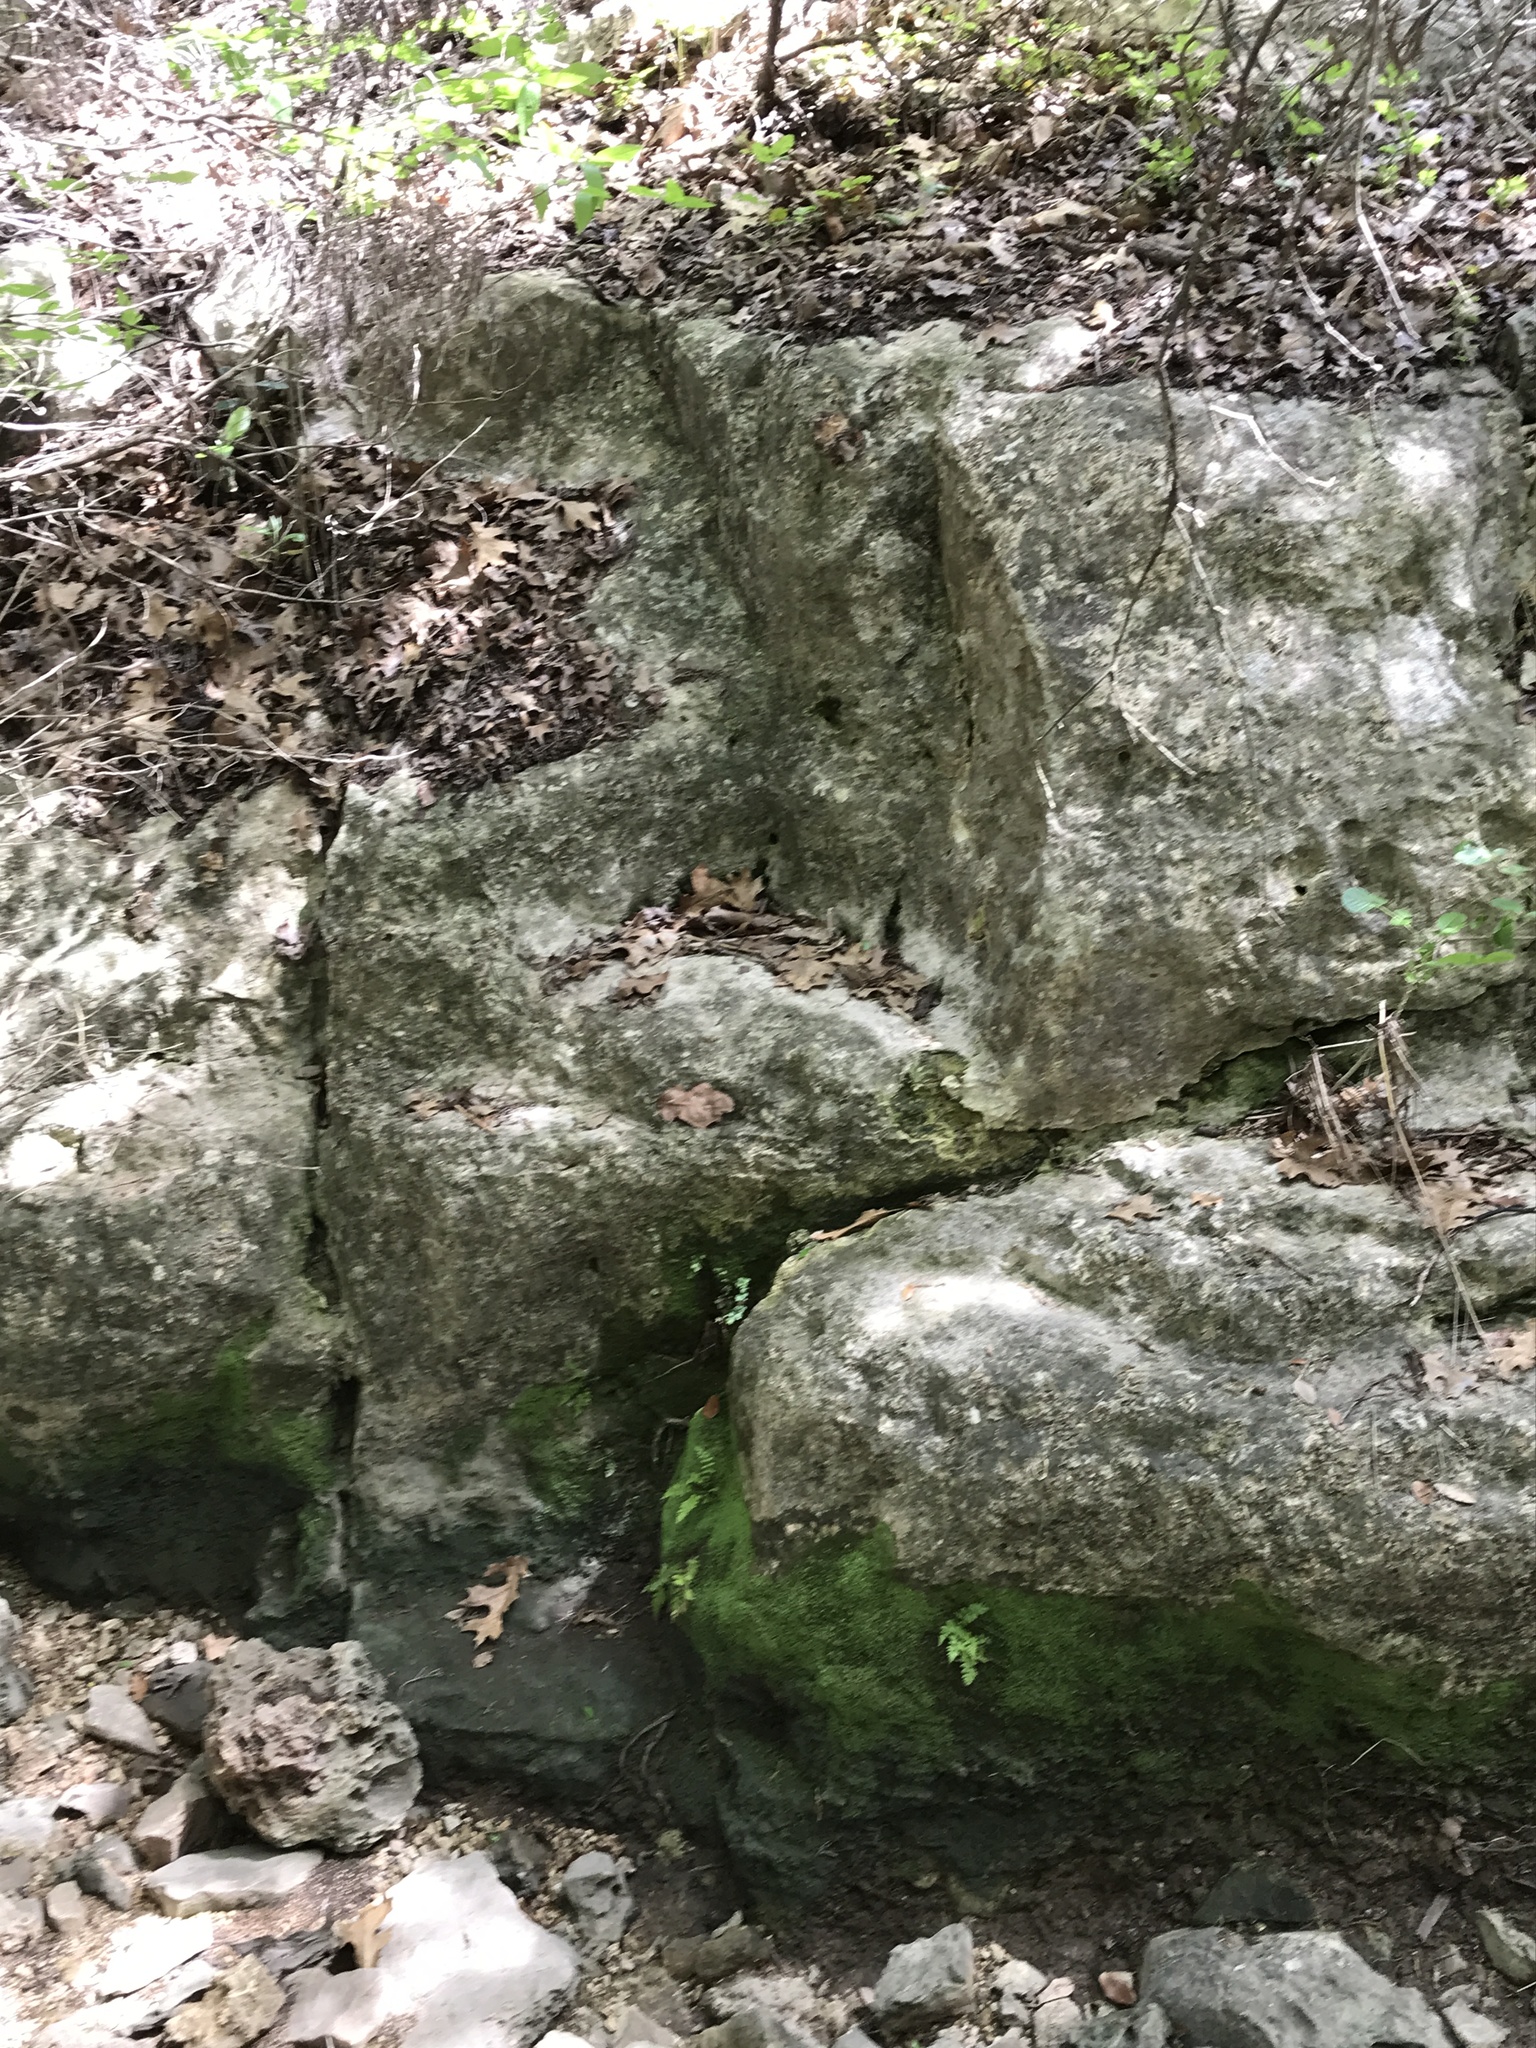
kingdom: Plantae
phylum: Tracheophyta
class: Polypodiopsida
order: Polypodiales
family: Pteridaceae
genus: Adiantum
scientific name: Adiantum capillus-veneris
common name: Maidenhair fern
